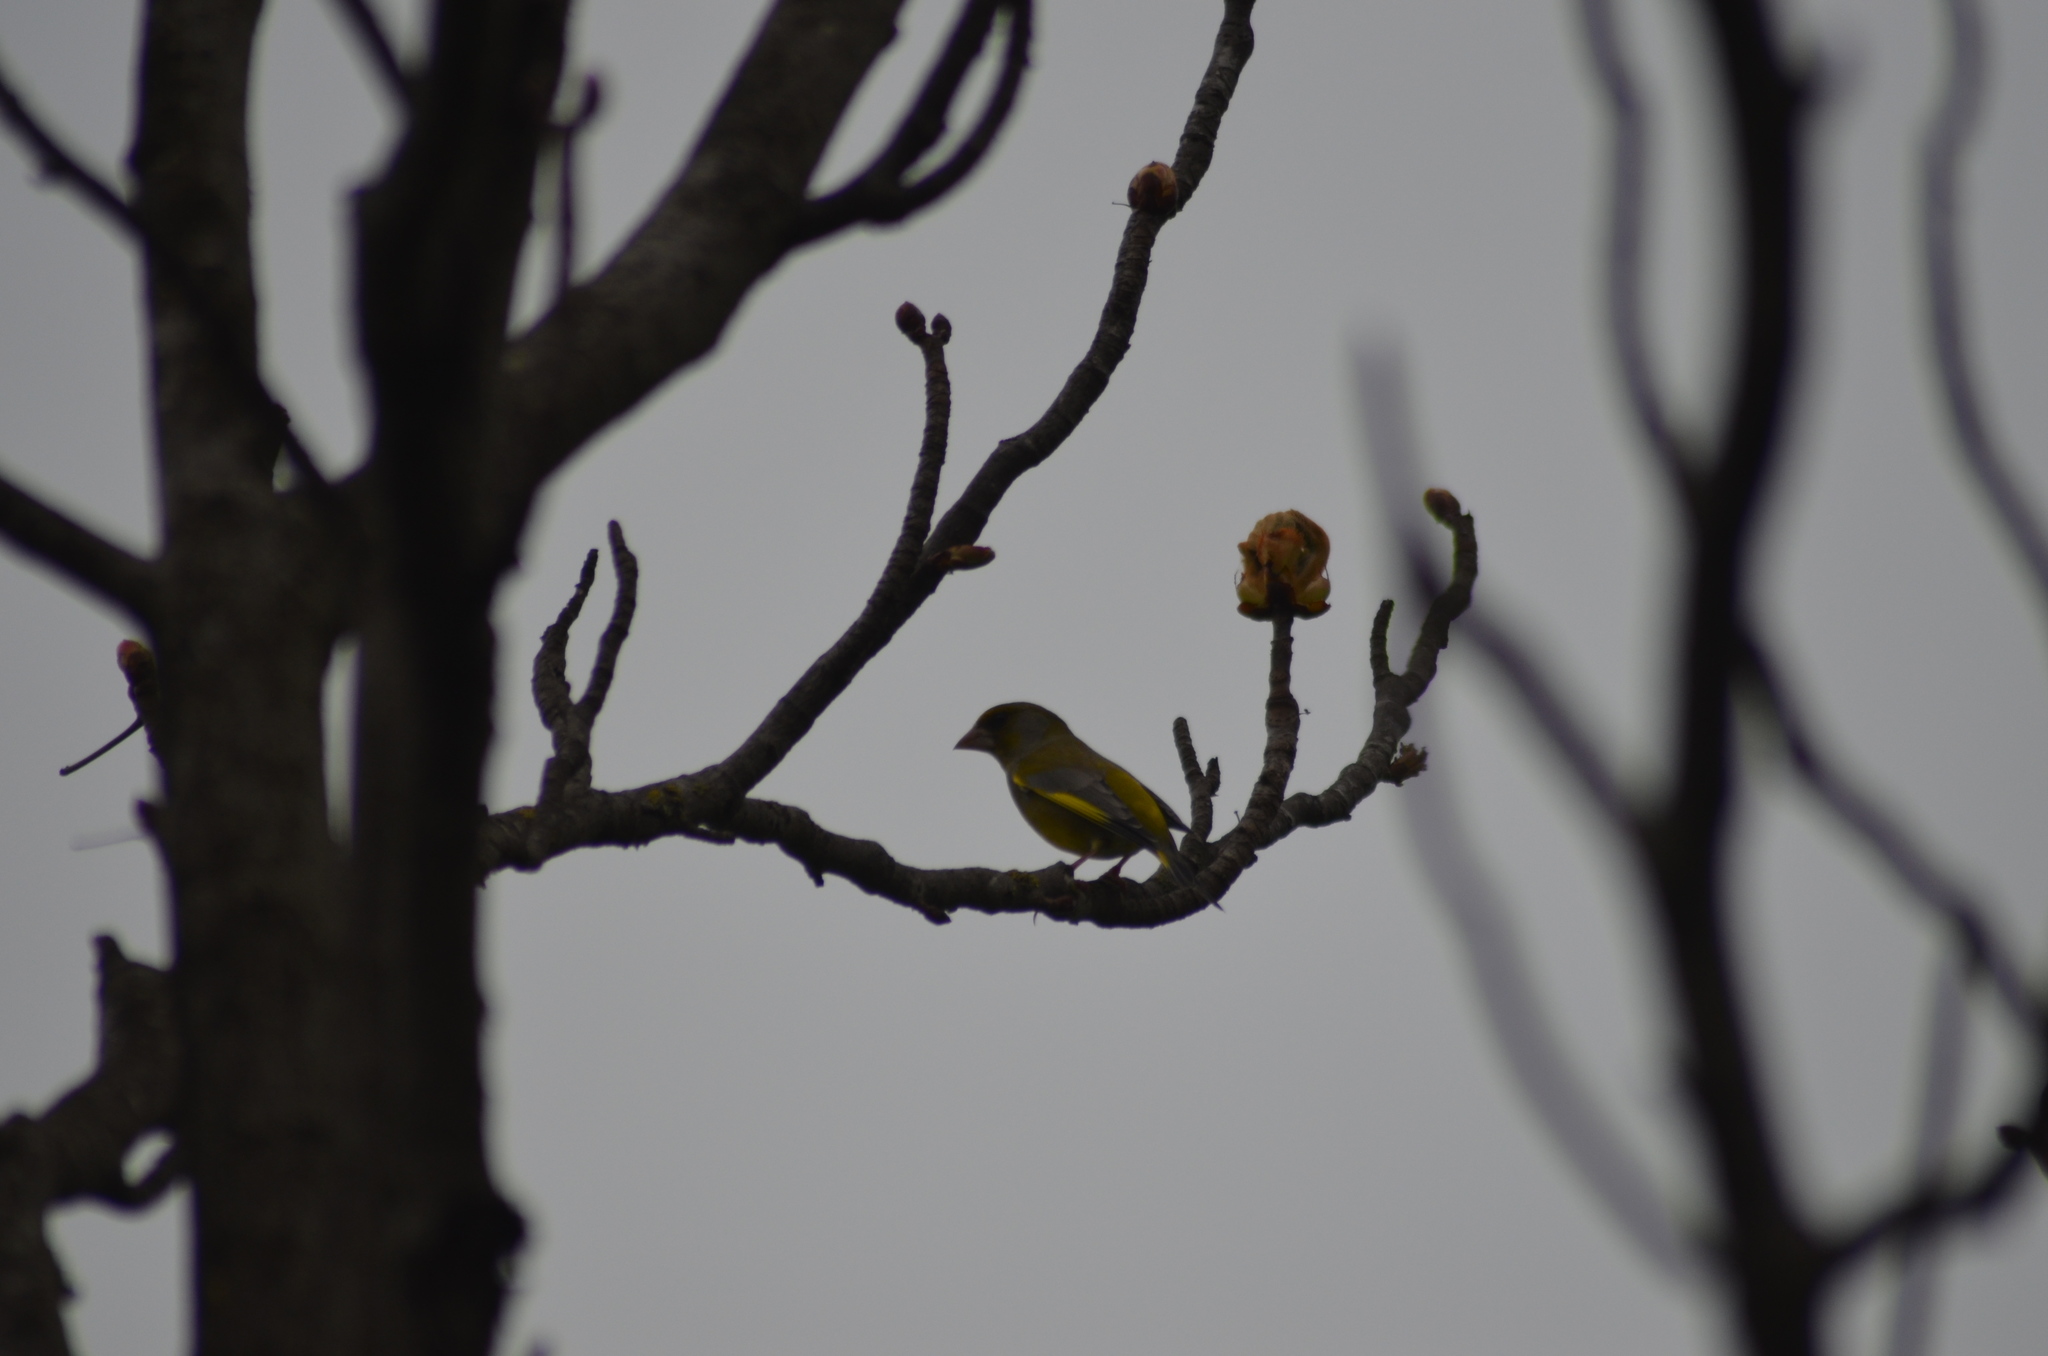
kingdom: Plantae
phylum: Tracheophyta
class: Liliopsida
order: Poales
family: Poaceae
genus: Chloris
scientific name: Chloris chloris
